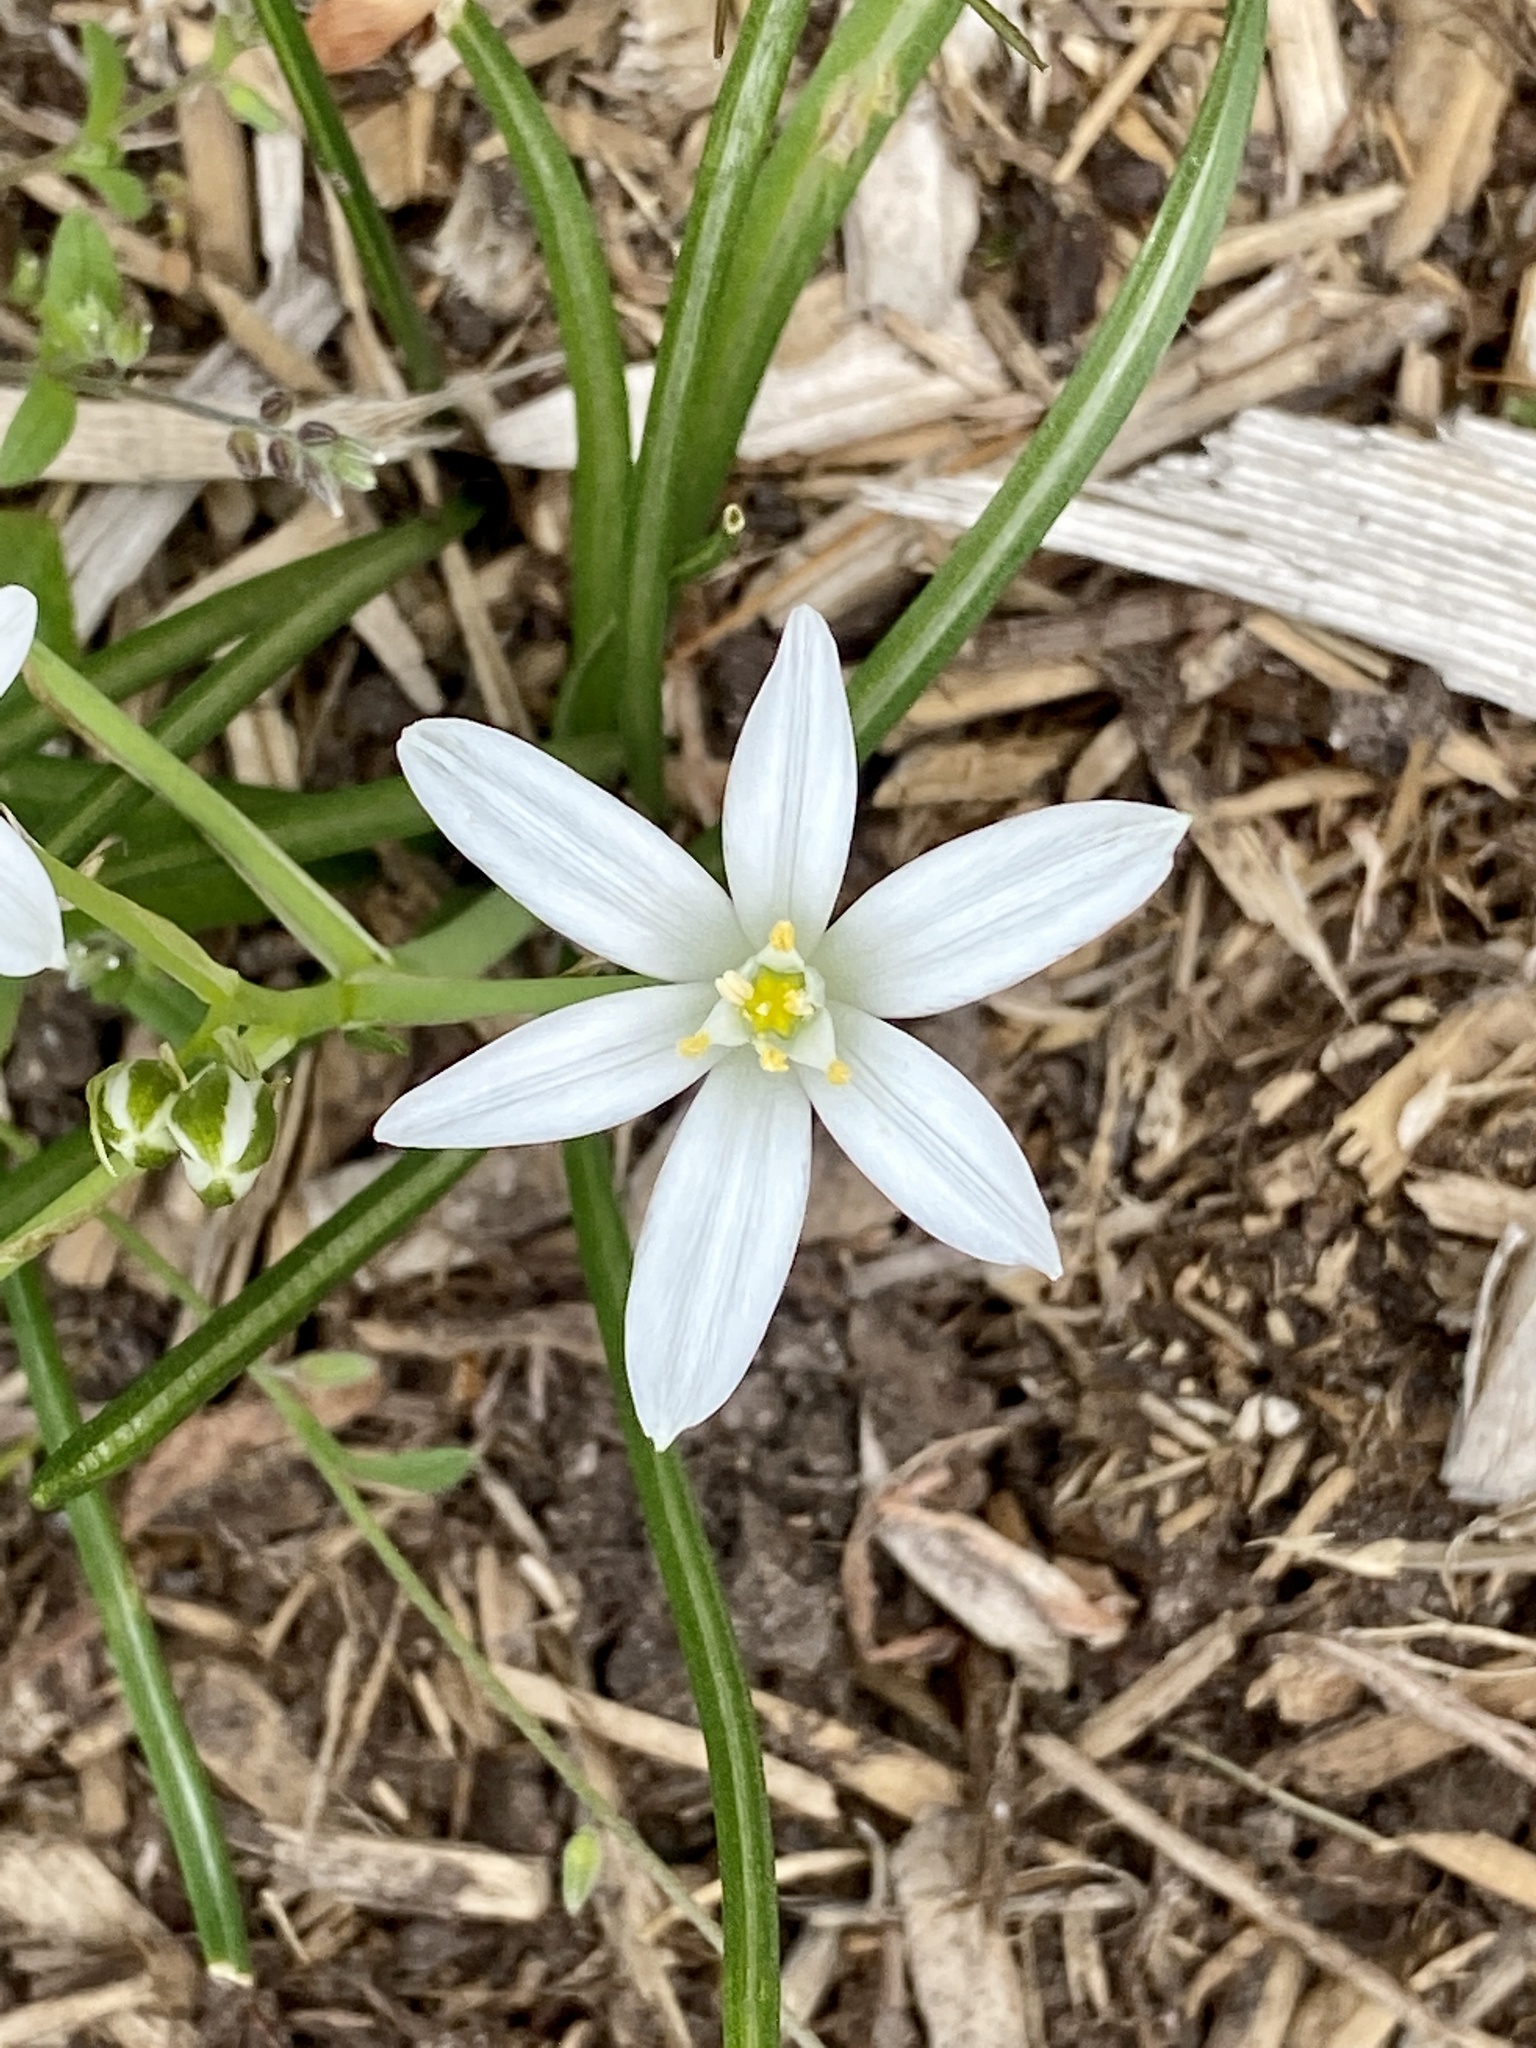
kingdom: Plantae
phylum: Tracheophyta
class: Liliopsida
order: Asparagales
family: Asparagaceae
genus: Ornithogalum
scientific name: Ornithogalum umbellatum
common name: Garden star-of-bethlehem
